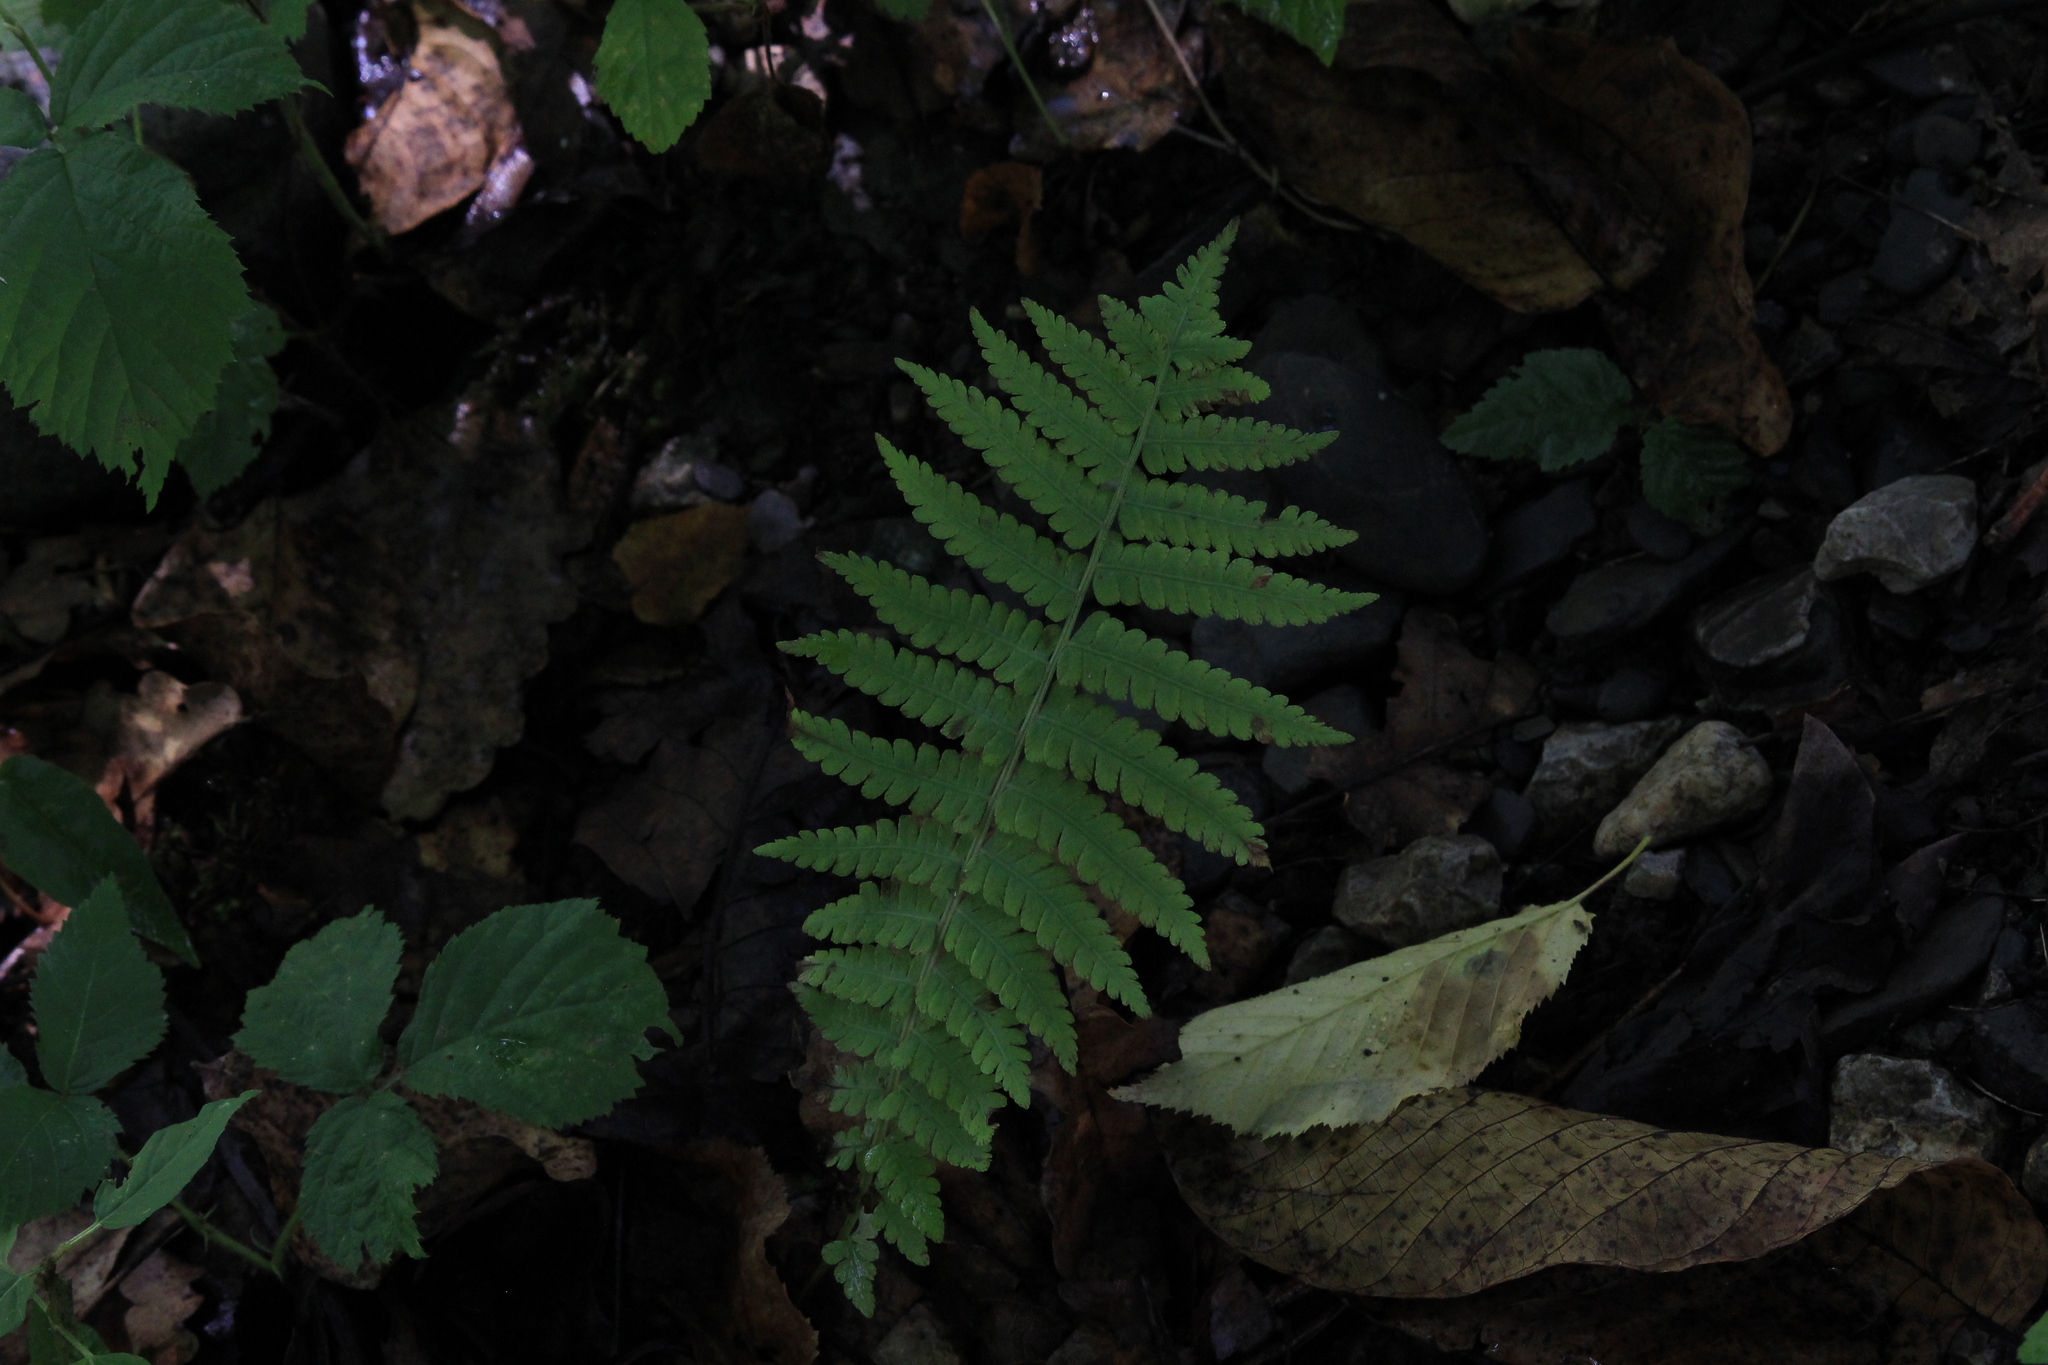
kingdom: Plantae
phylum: Tracheophyta
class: Polypodiopsida
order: Polypodiales
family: Onocleaceae
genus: Matteuccia
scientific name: Matteuccia struthiopteris
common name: Ostrich fern
